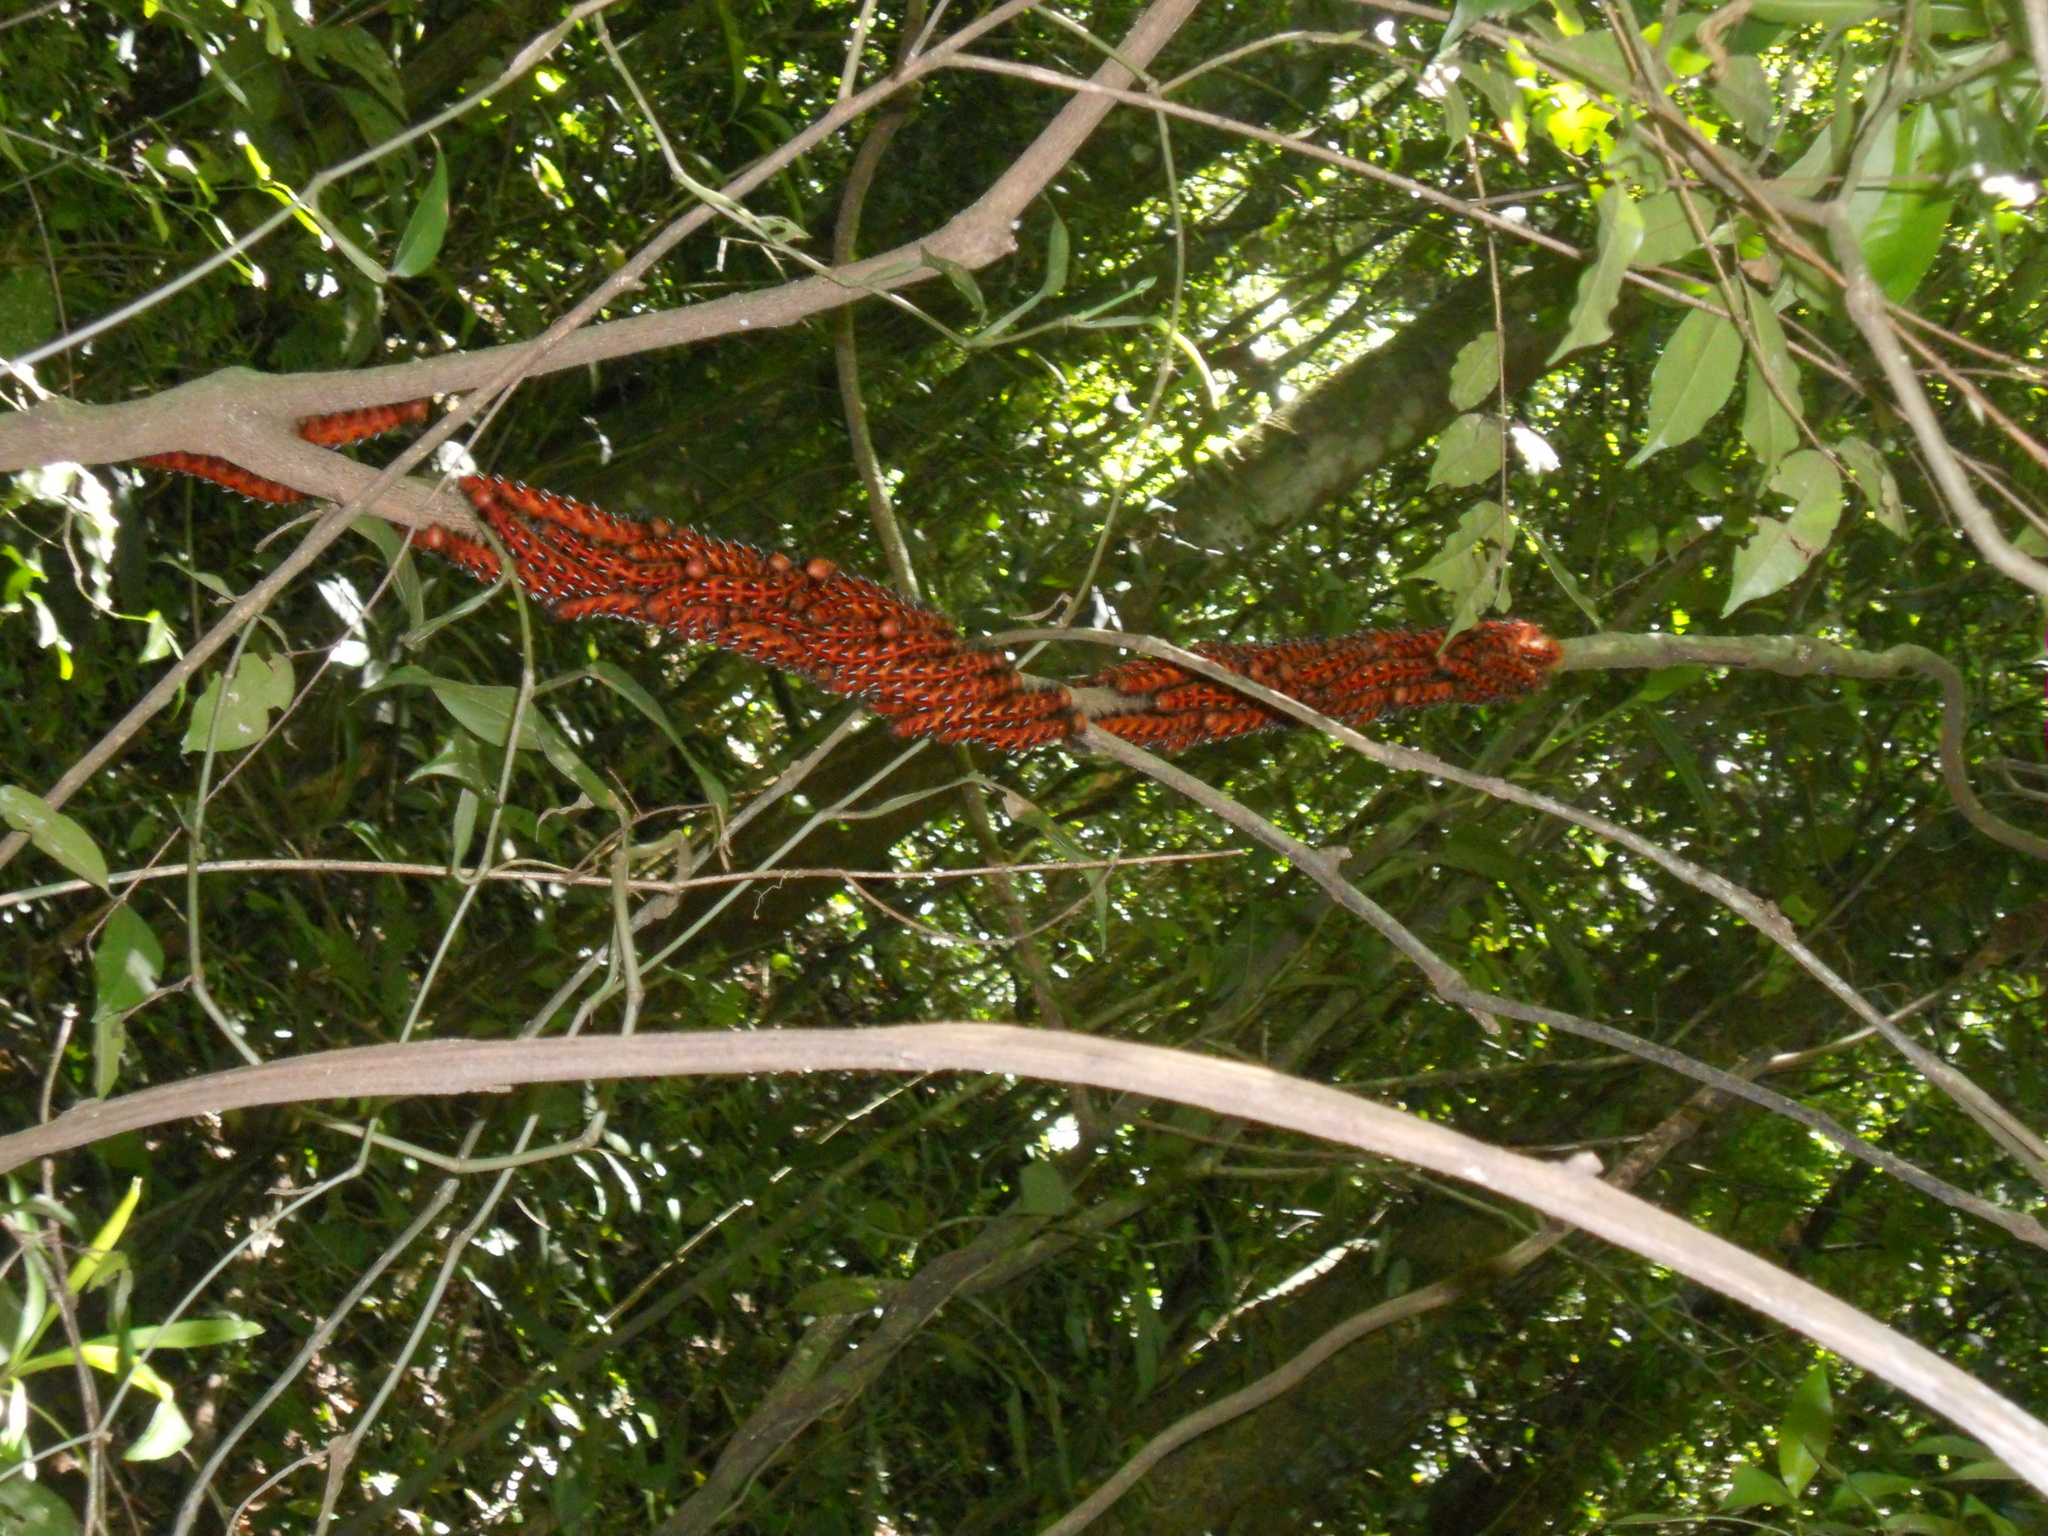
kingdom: Animalia
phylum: Arthropoda
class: Insecta
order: Lepidoptera
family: Nymphalidae
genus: Morpho
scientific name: Morpho hercules
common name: Hercules morpho
